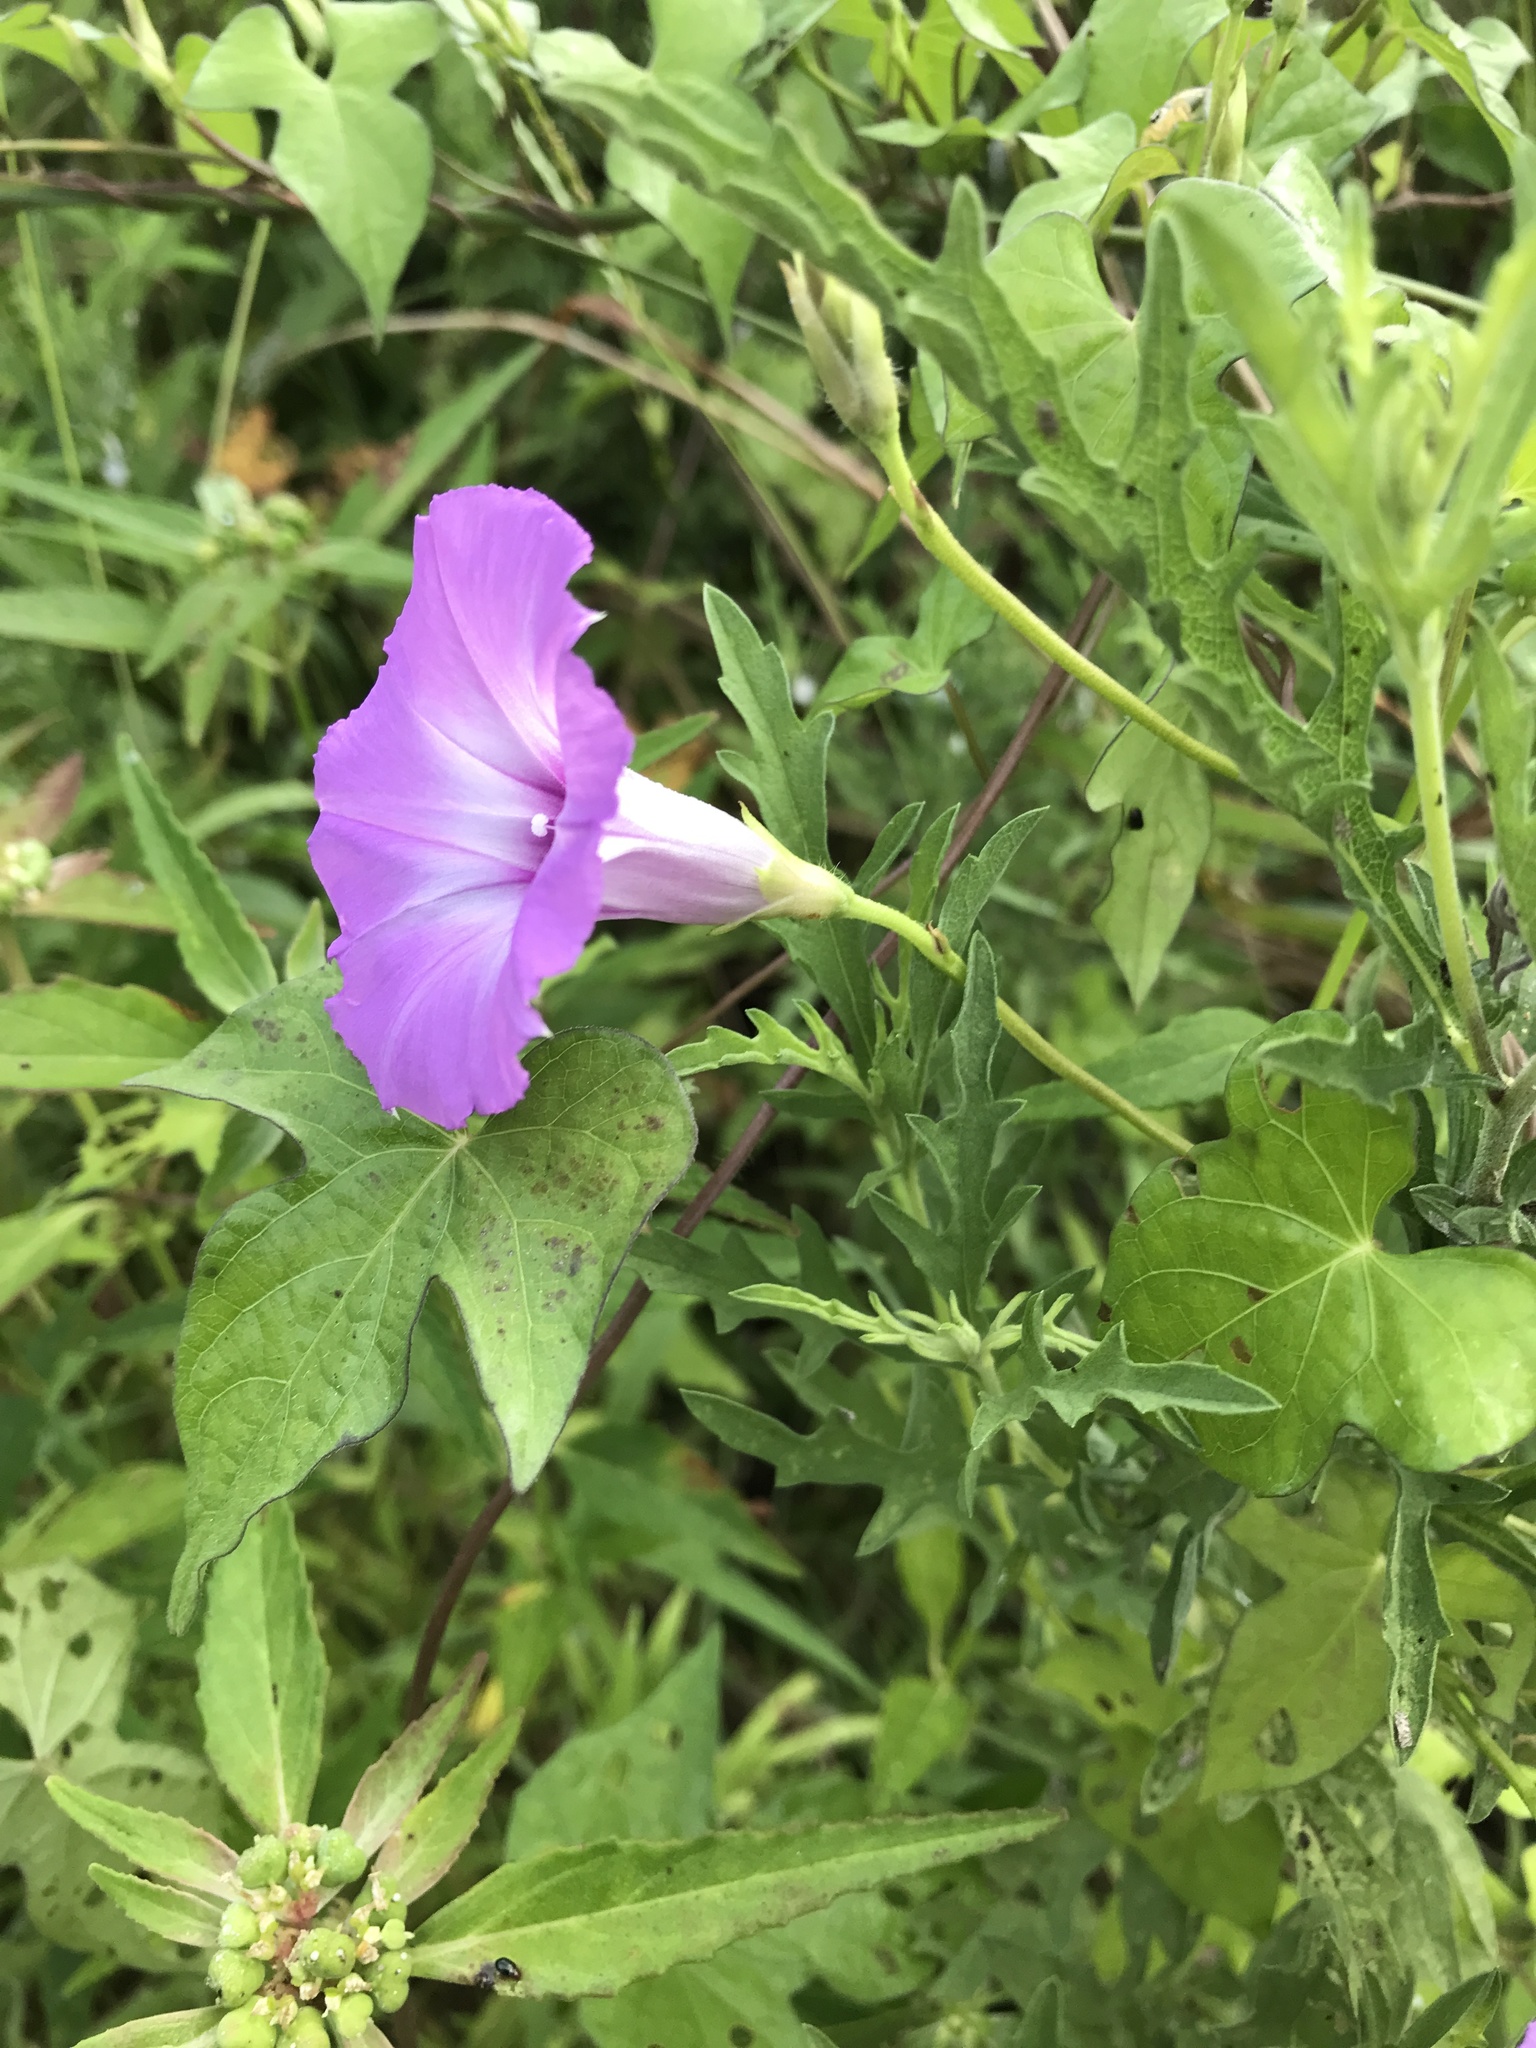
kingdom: Plantae
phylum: Tracheophyta
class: Magnoliopsida
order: Solanales
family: Convolvulaceae
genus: Ipomoea
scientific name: Ipomoea cordatotriloba
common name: Cotton morning glory
